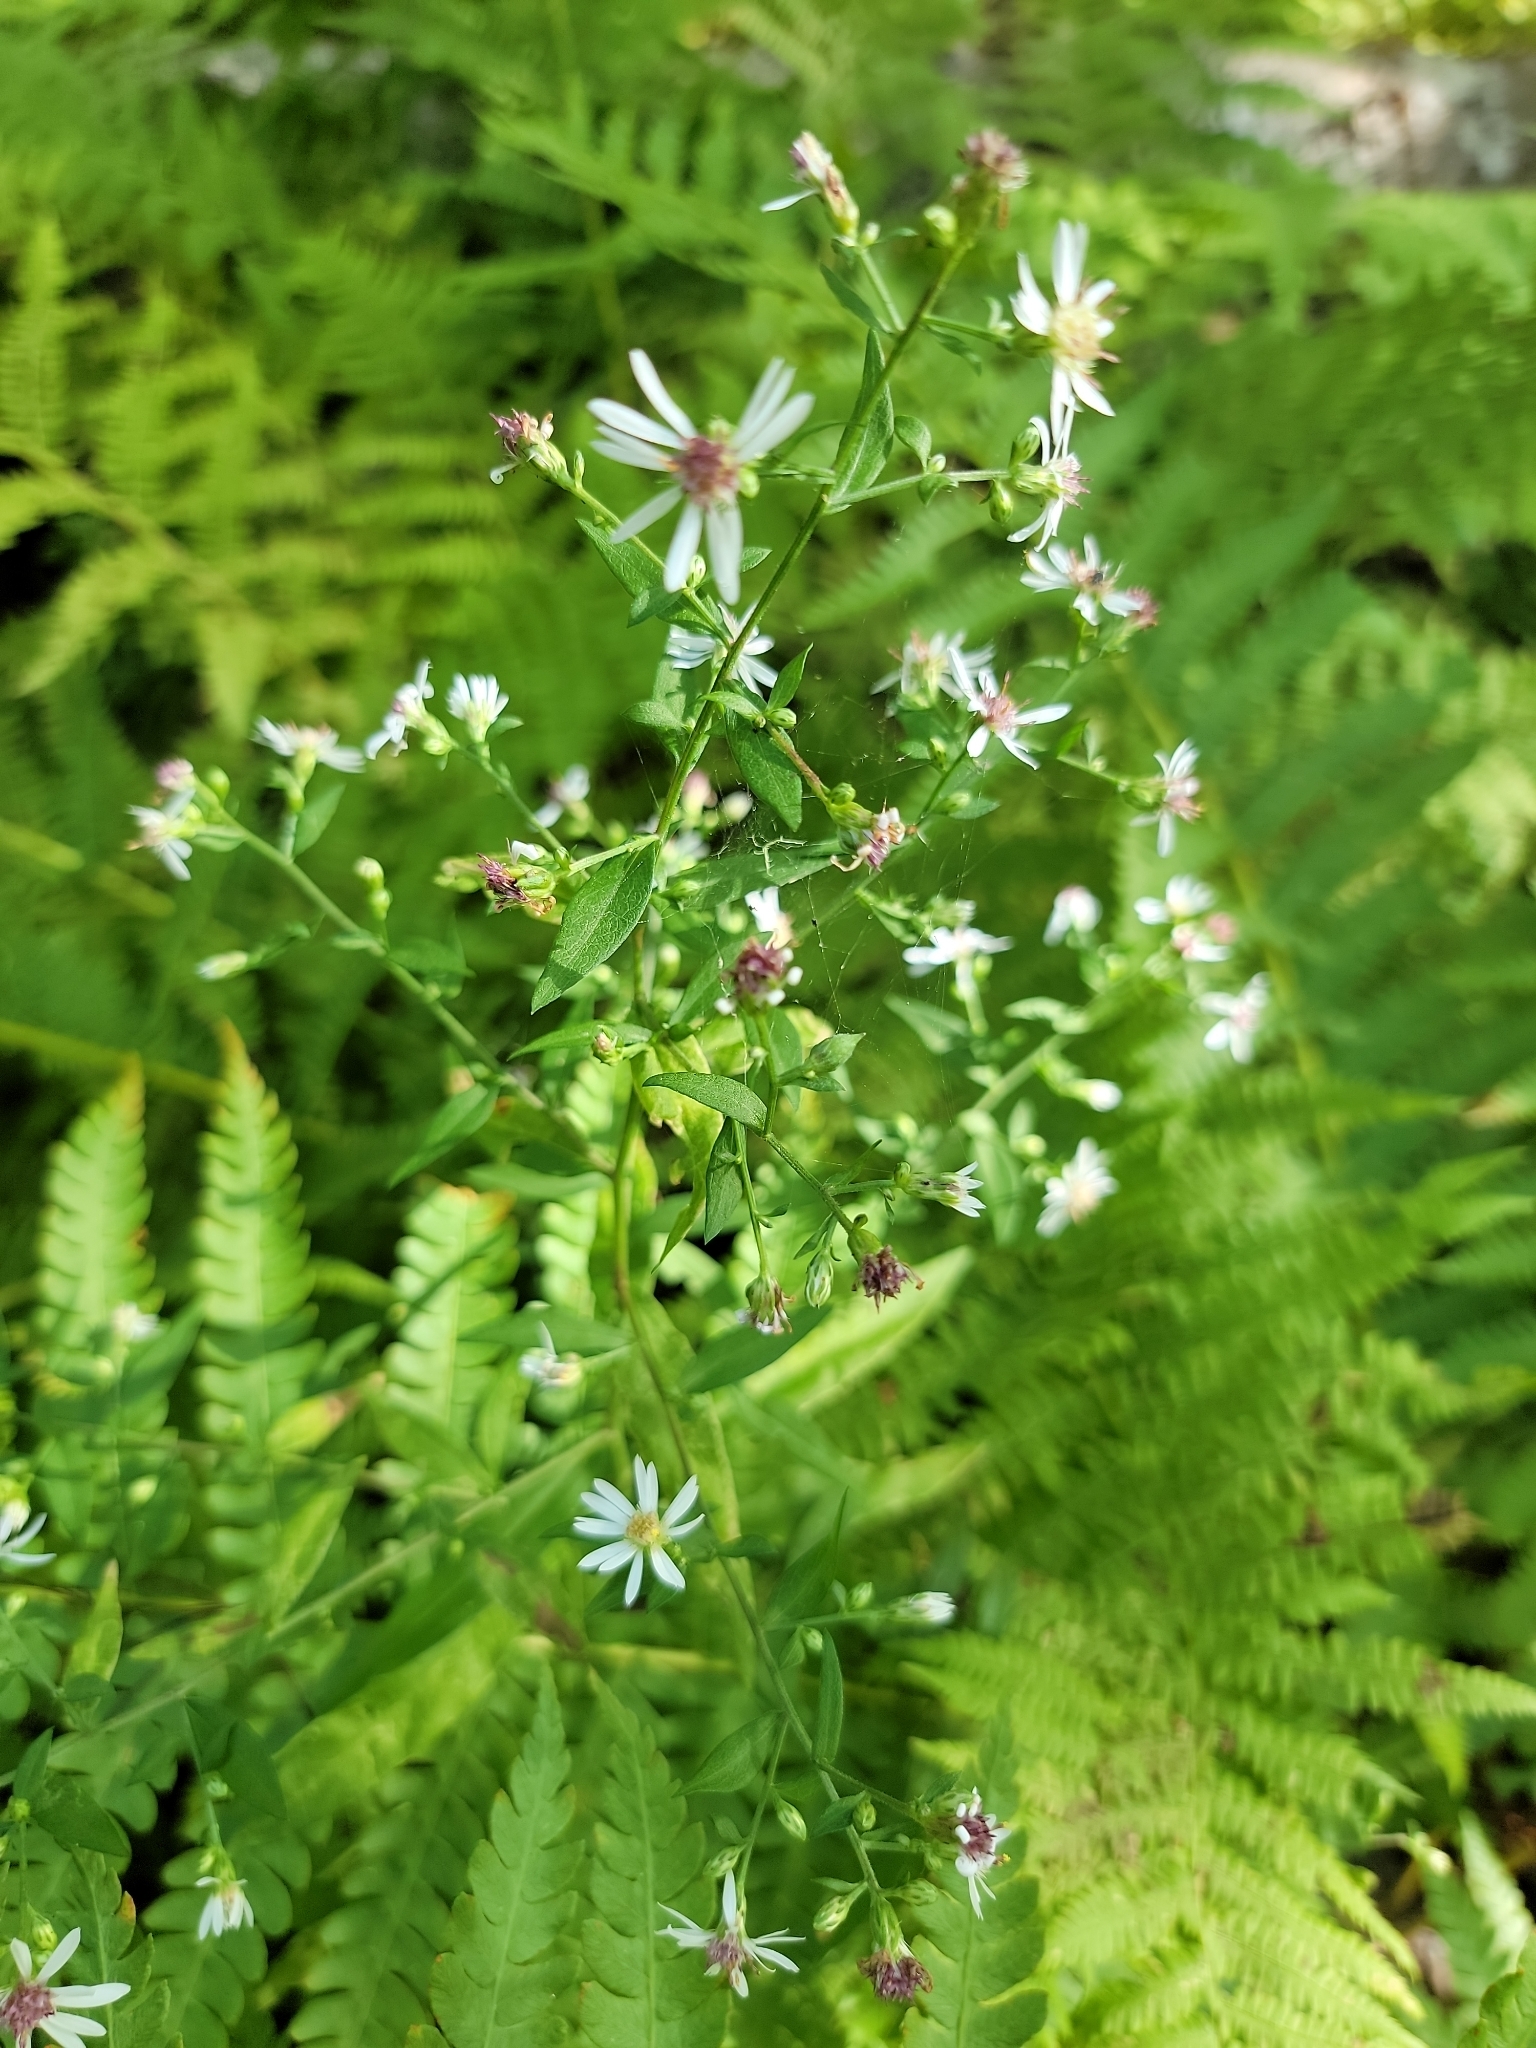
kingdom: Plantae
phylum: Tracheophyta
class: Magnoliopsida
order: Asterales
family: Asteraceae
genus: Symphyotrichum
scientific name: Symphyotrichum lateriflorum
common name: Calico aster
